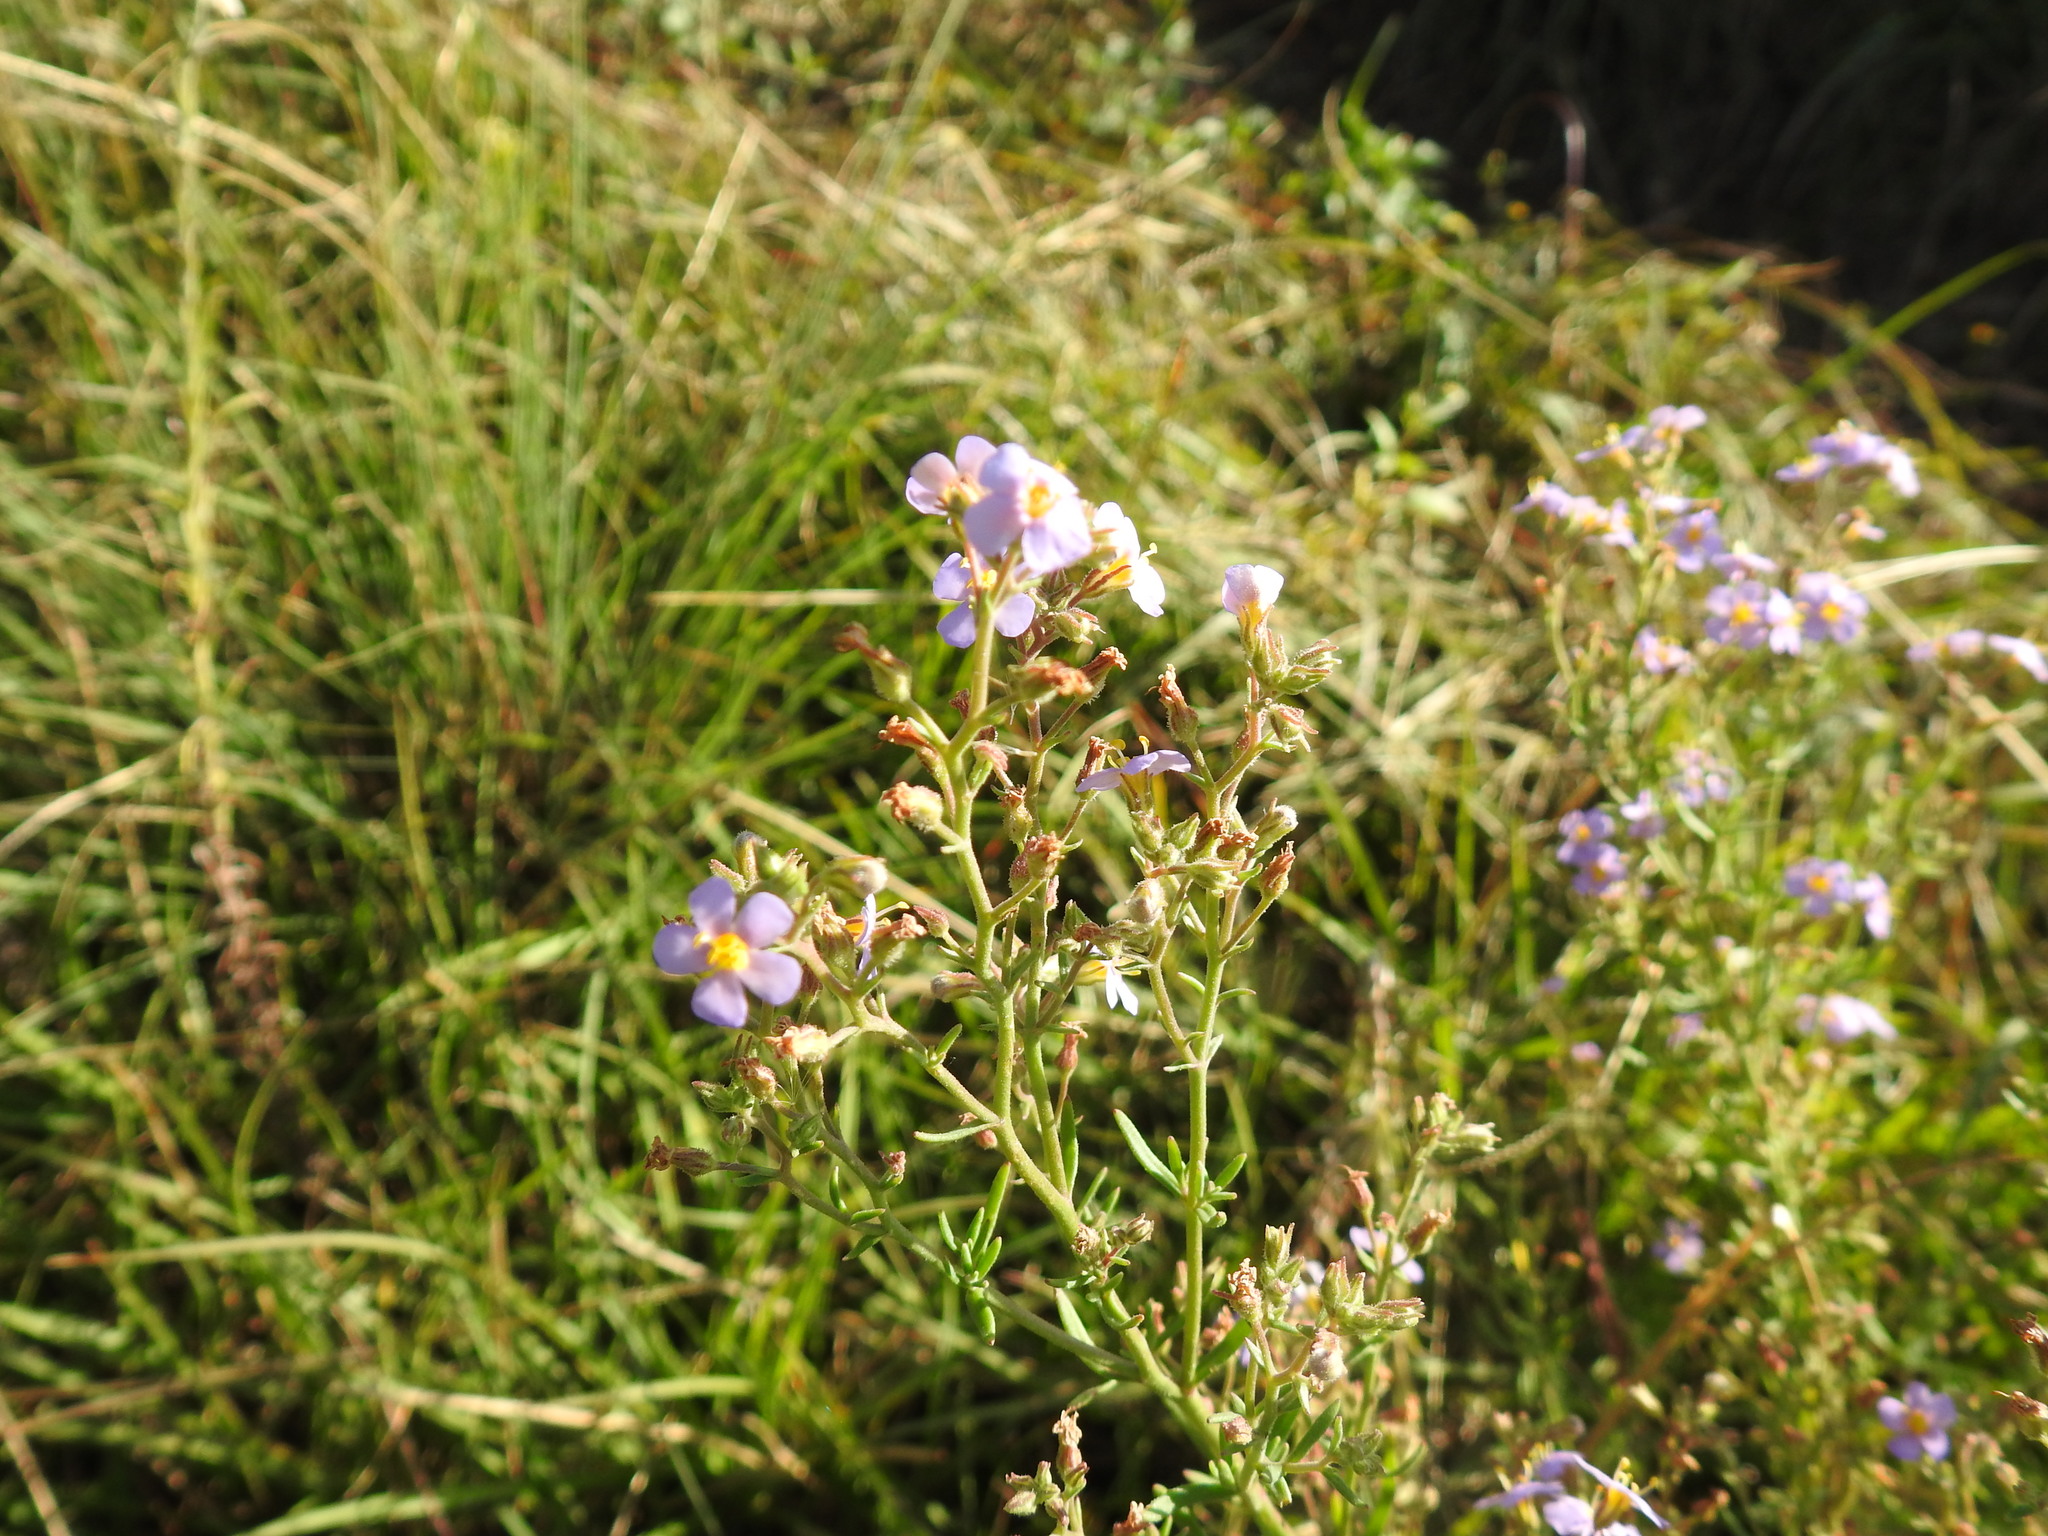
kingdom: Plantae
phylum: Tracheophyta
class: Magnoliopsida
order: Lamiales
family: Scrophulariaceae
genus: Chaenostoma
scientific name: Chaenostoma leve
